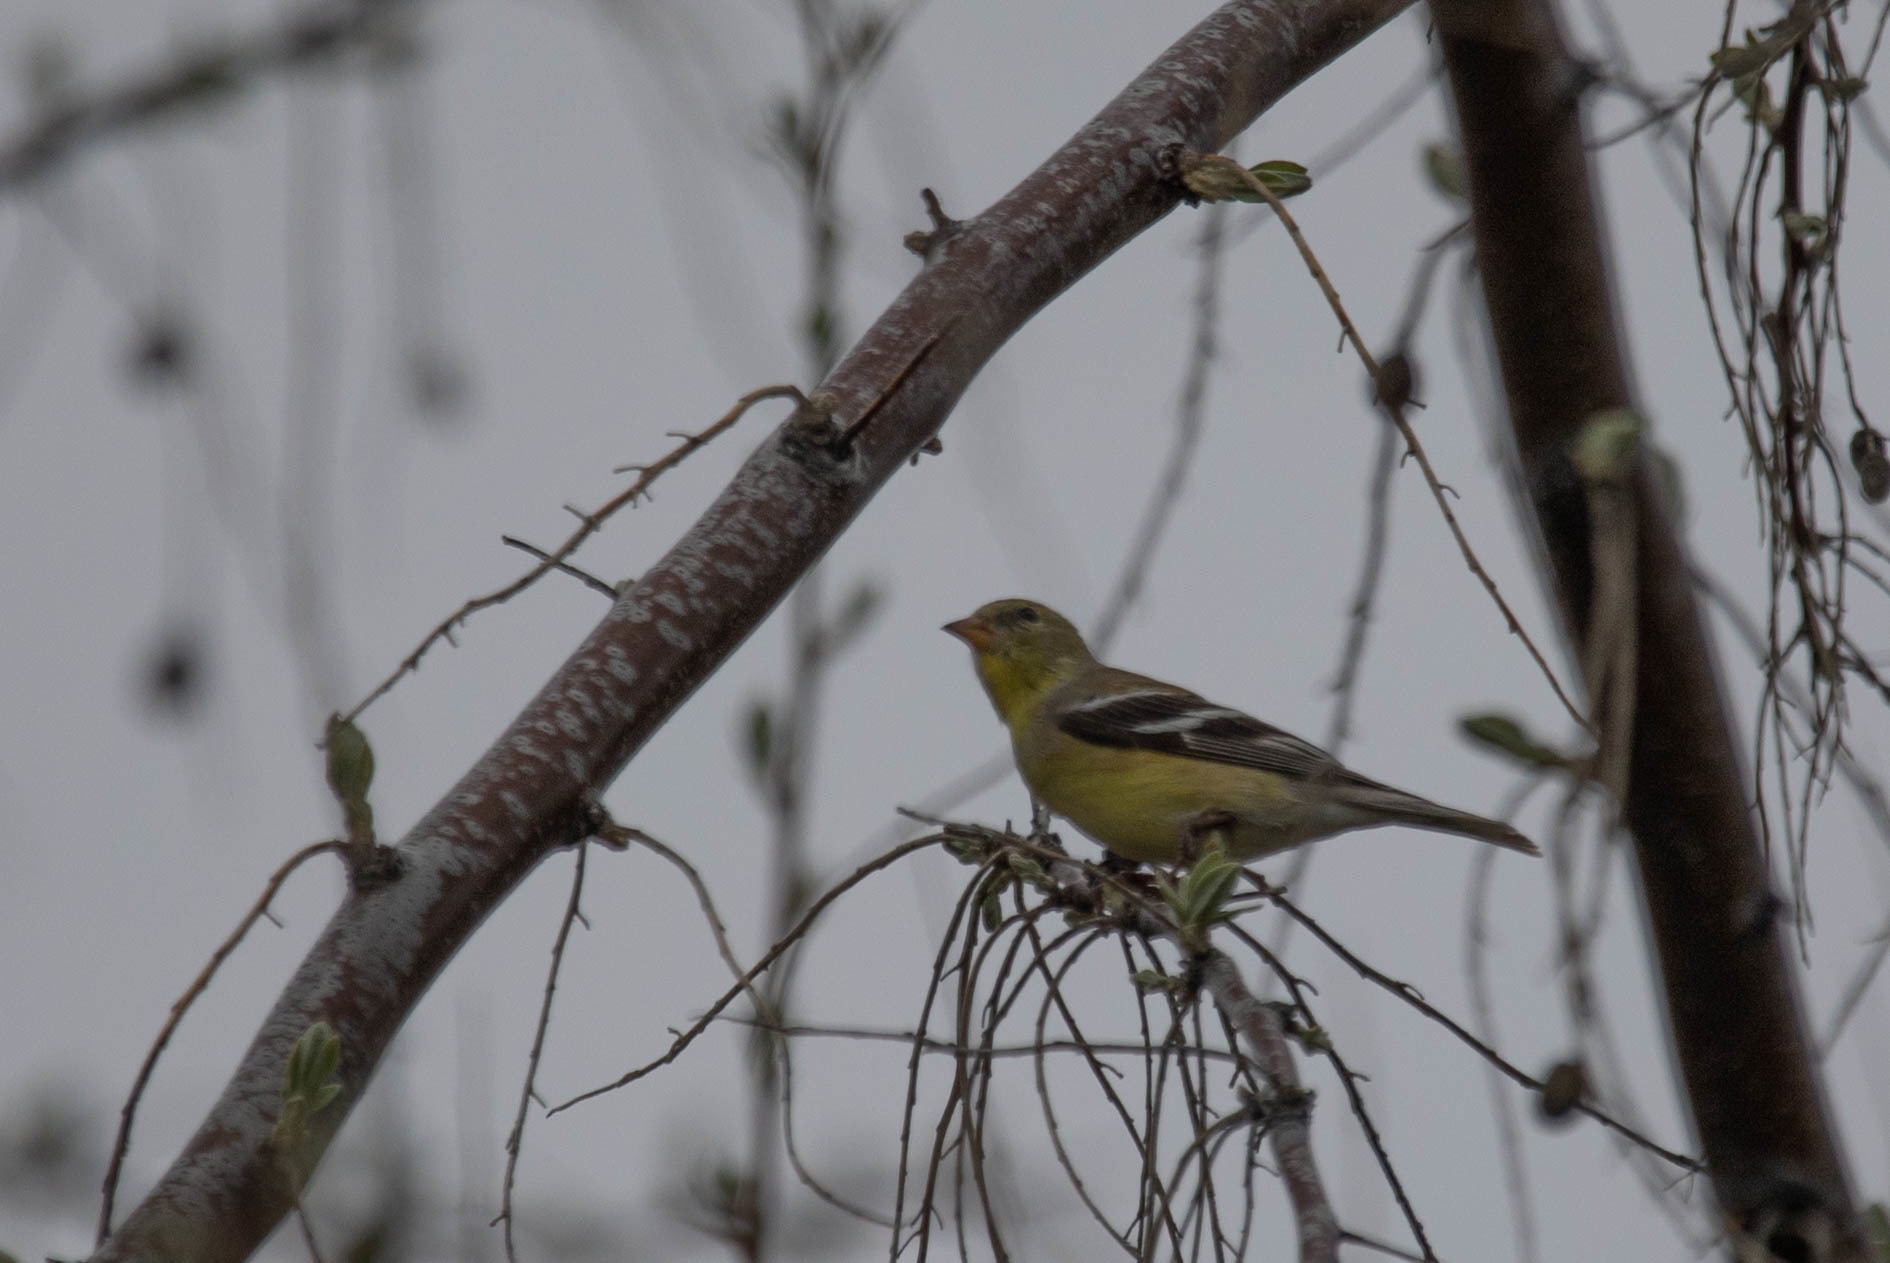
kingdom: Animalia
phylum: Chordata
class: Aves
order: Passeriformes
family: Fringillidae
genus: Spinus
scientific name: Spinus tristis
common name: American goldfinch
